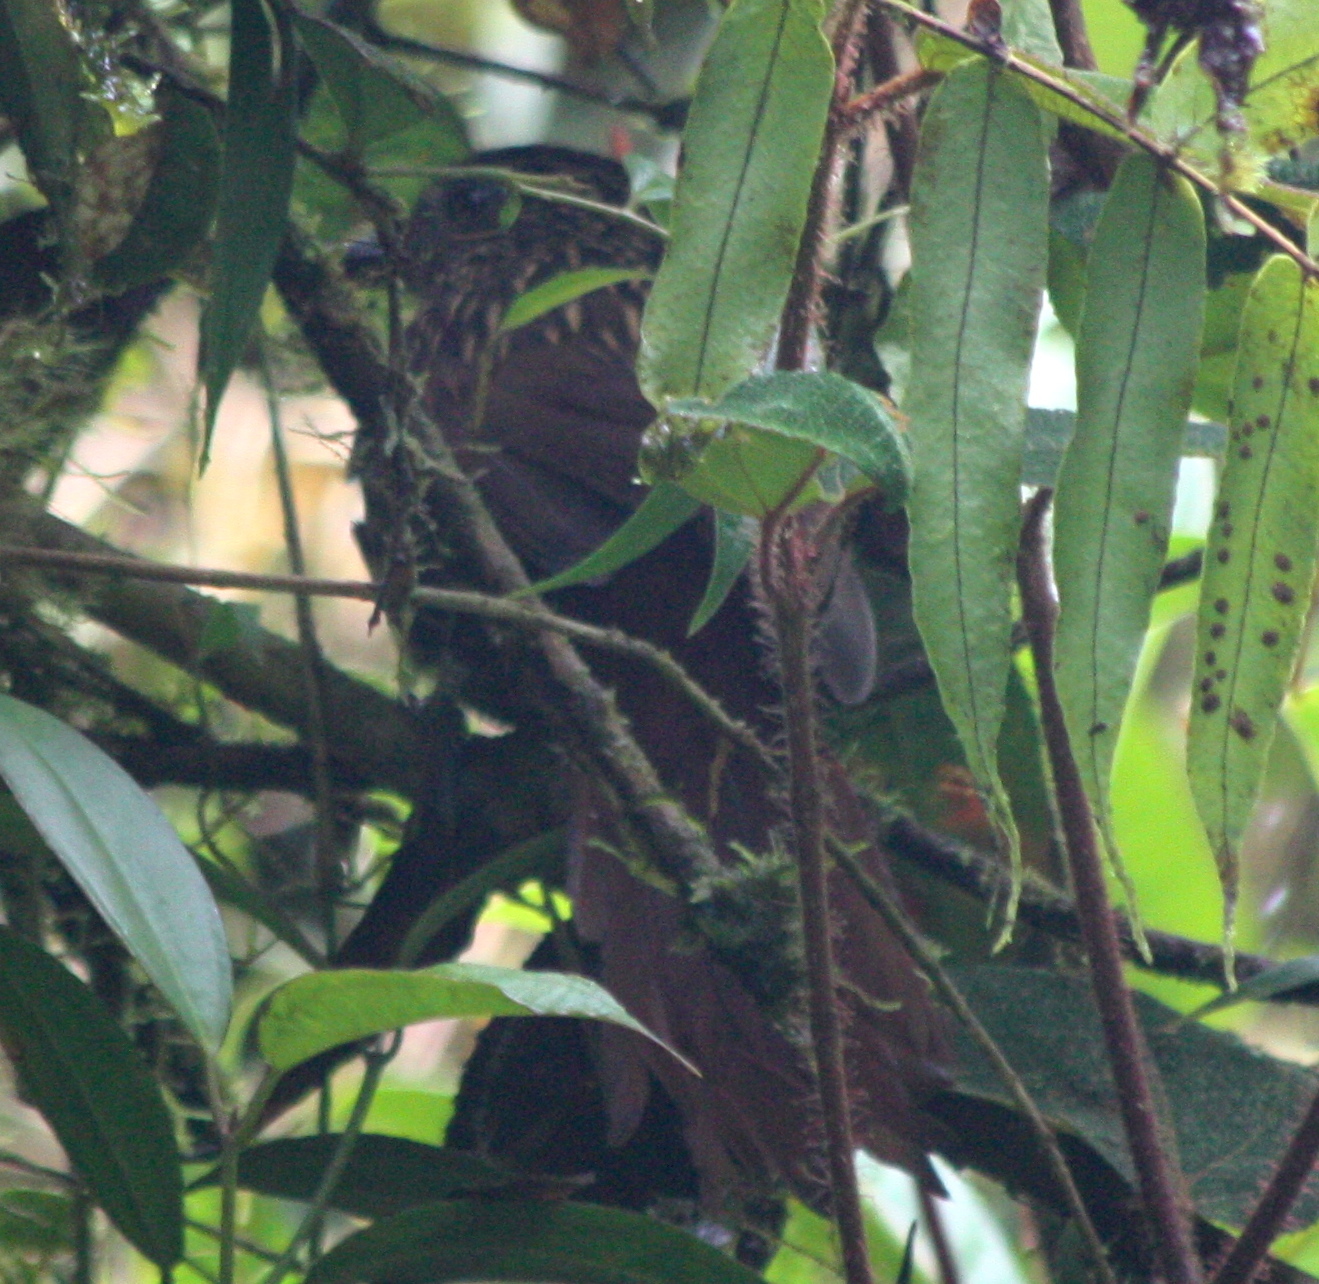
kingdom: Animalia
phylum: Chordata
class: Aves
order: Passeriformes
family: Furnariidae
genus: Thripadectes
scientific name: Thripadectes flammulatus
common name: Flammulated treehunter
